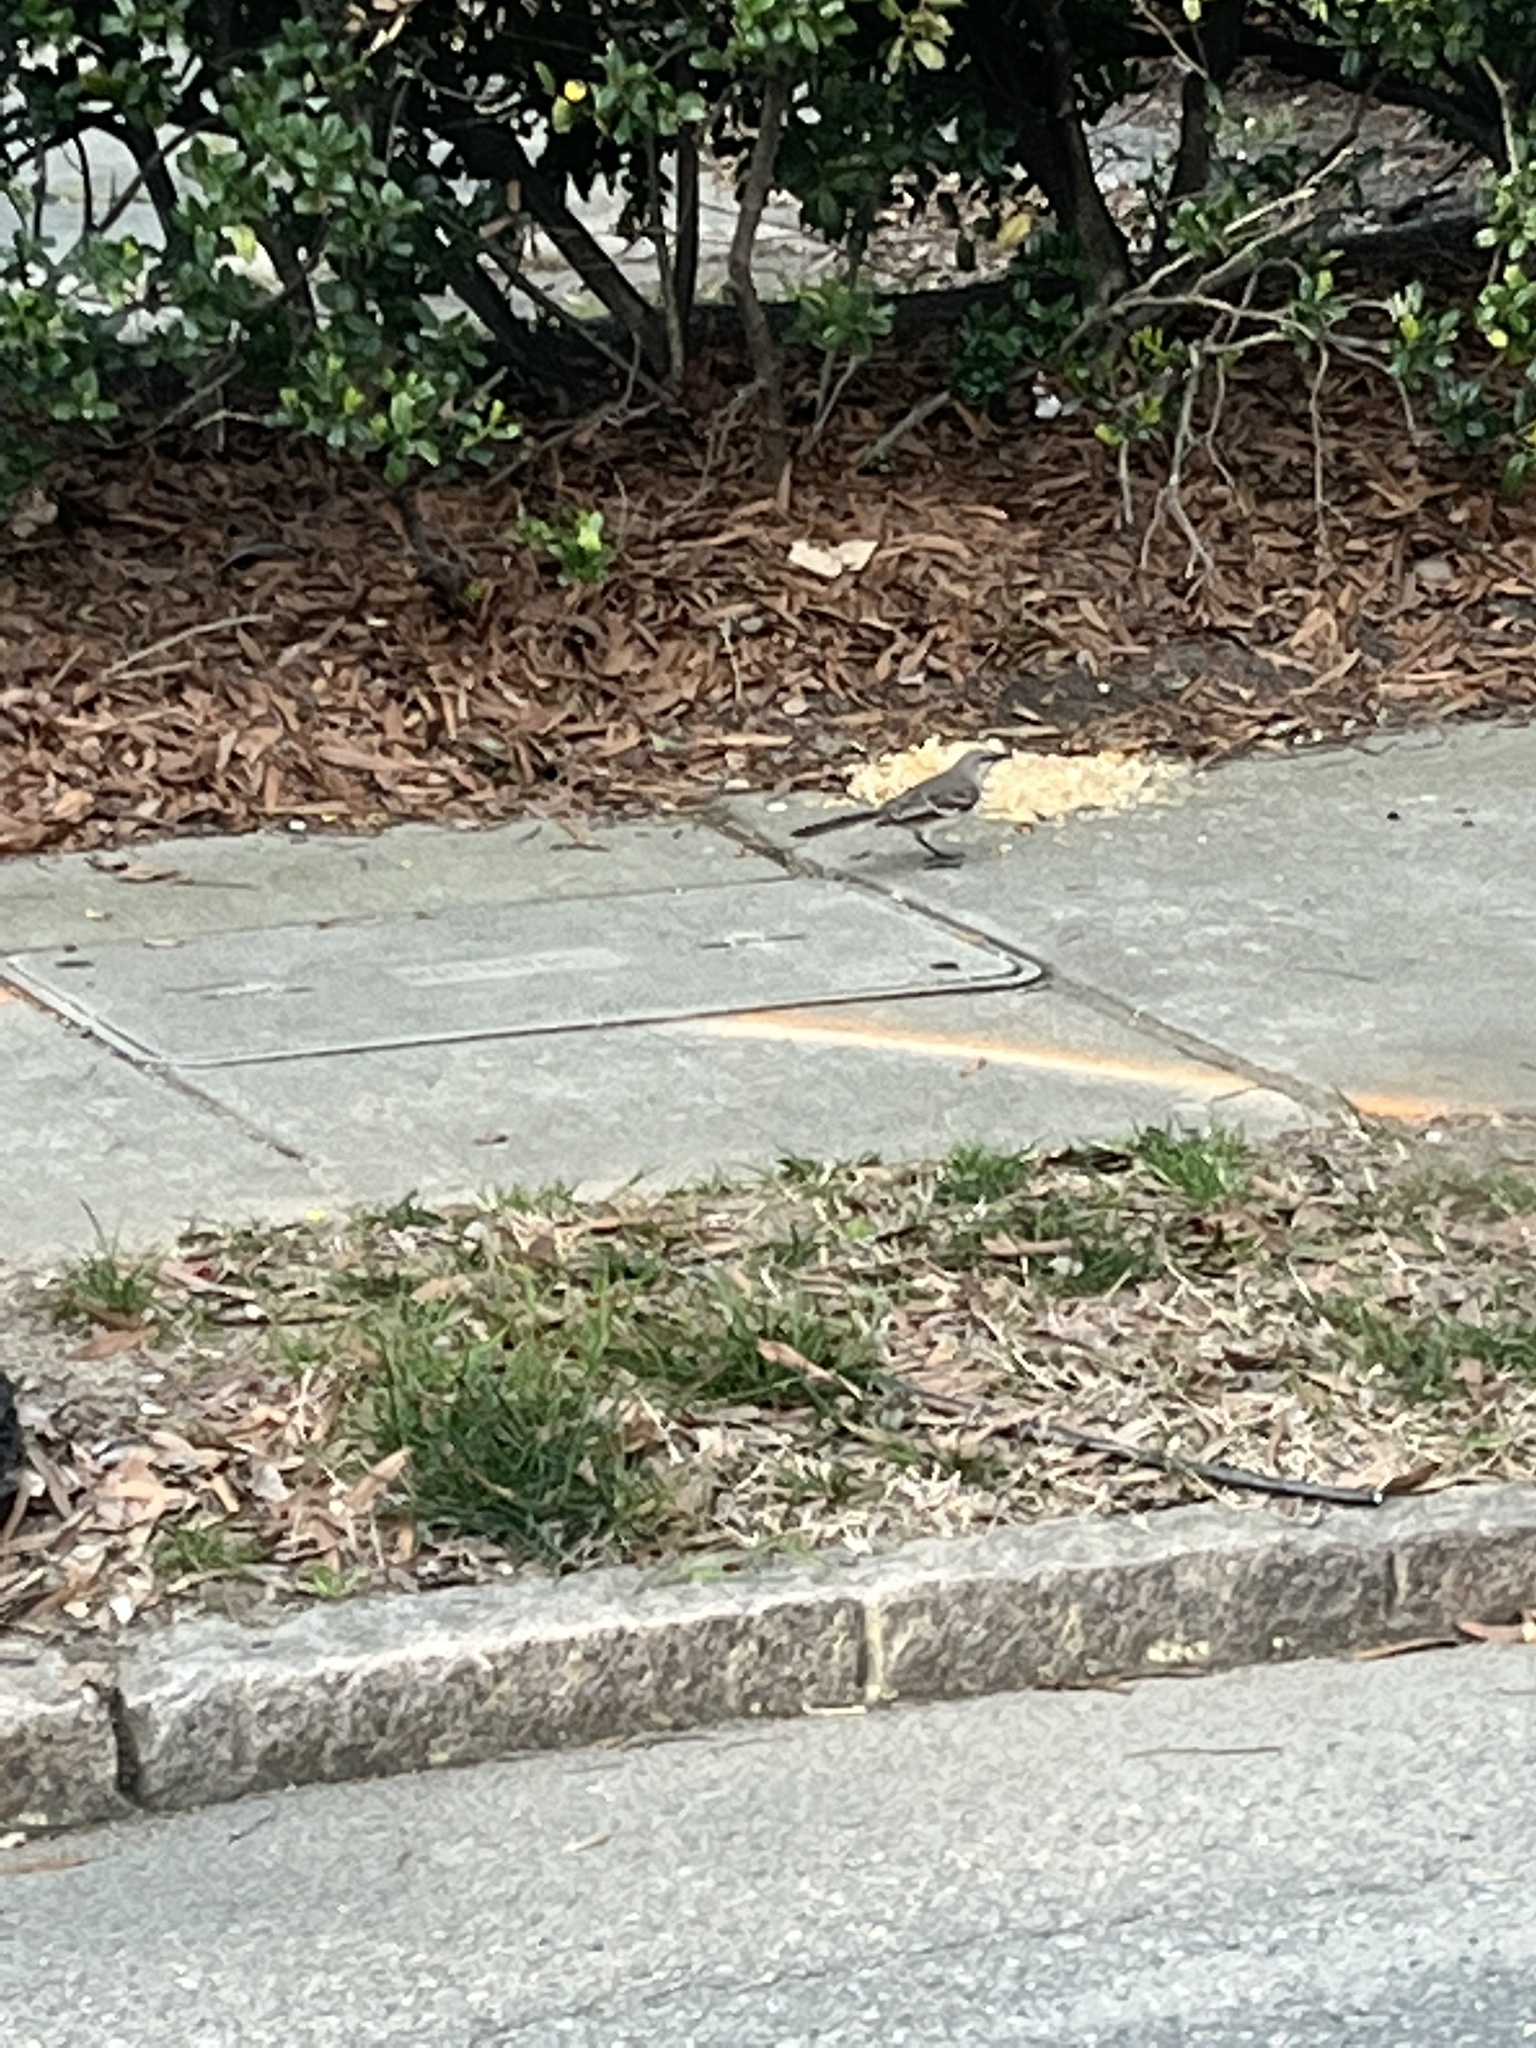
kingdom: Animalia
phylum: Chordata
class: Aves
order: Passeriformes
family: Mimidae
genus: Mimus
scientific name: Mimus polyglottos
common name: Northern mockingbird
